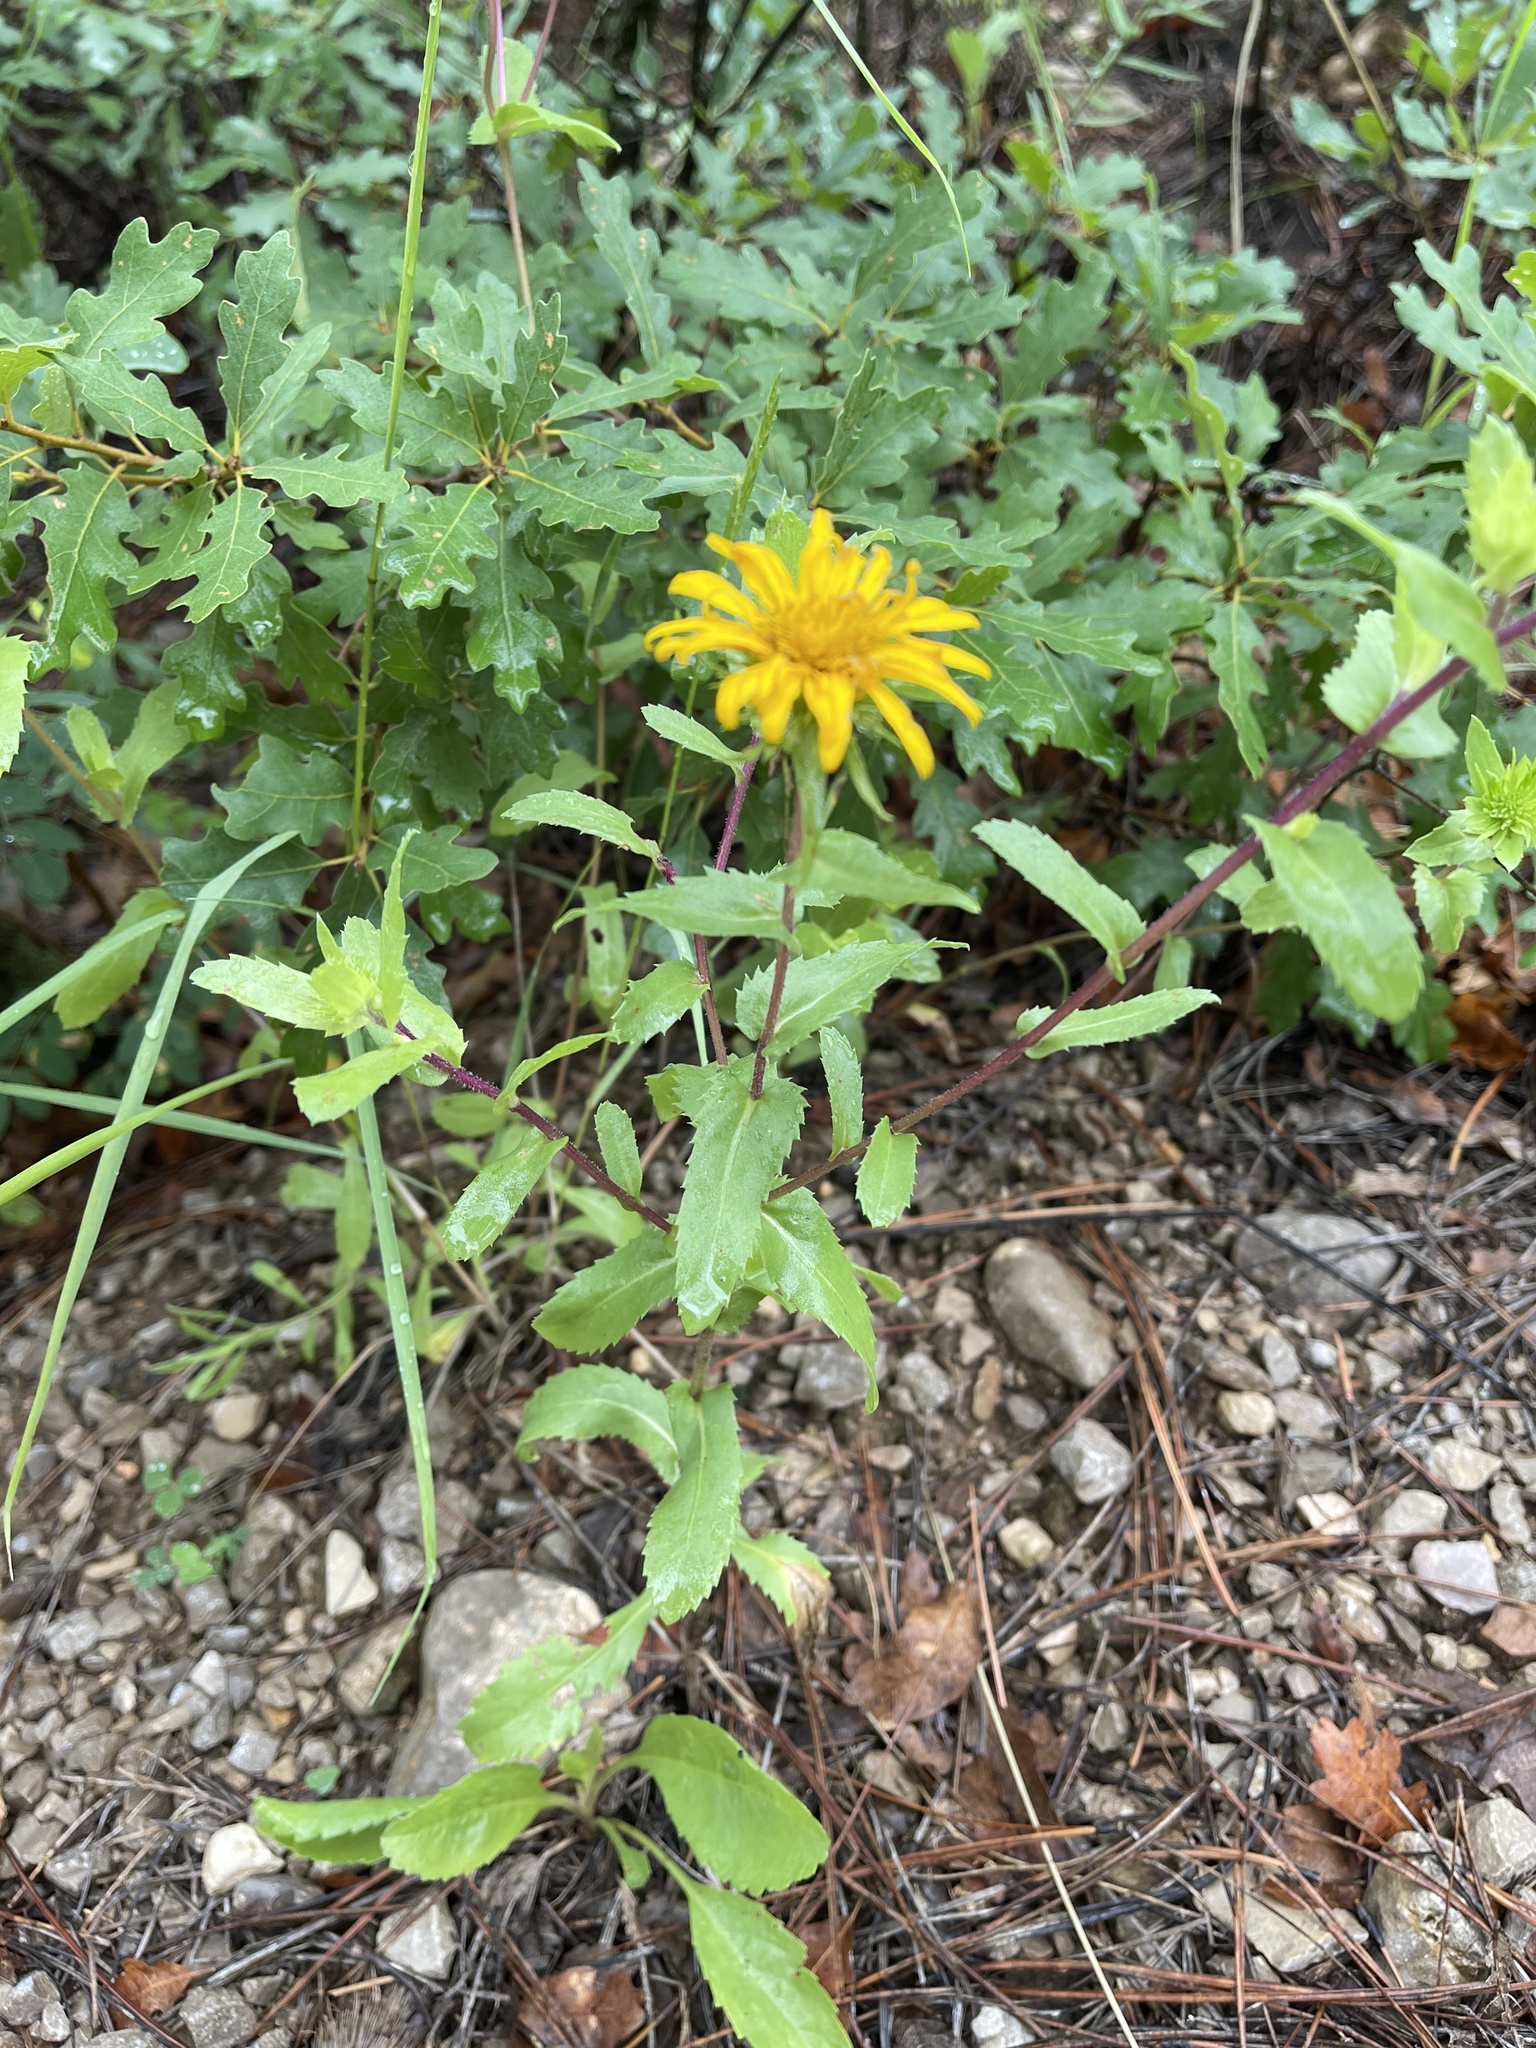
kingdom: Plantae
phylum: Tracheophyta
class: Magnoliopsida
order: Asterales
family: Asteraceae
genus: Grindelia
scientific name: Grindelia scabra
